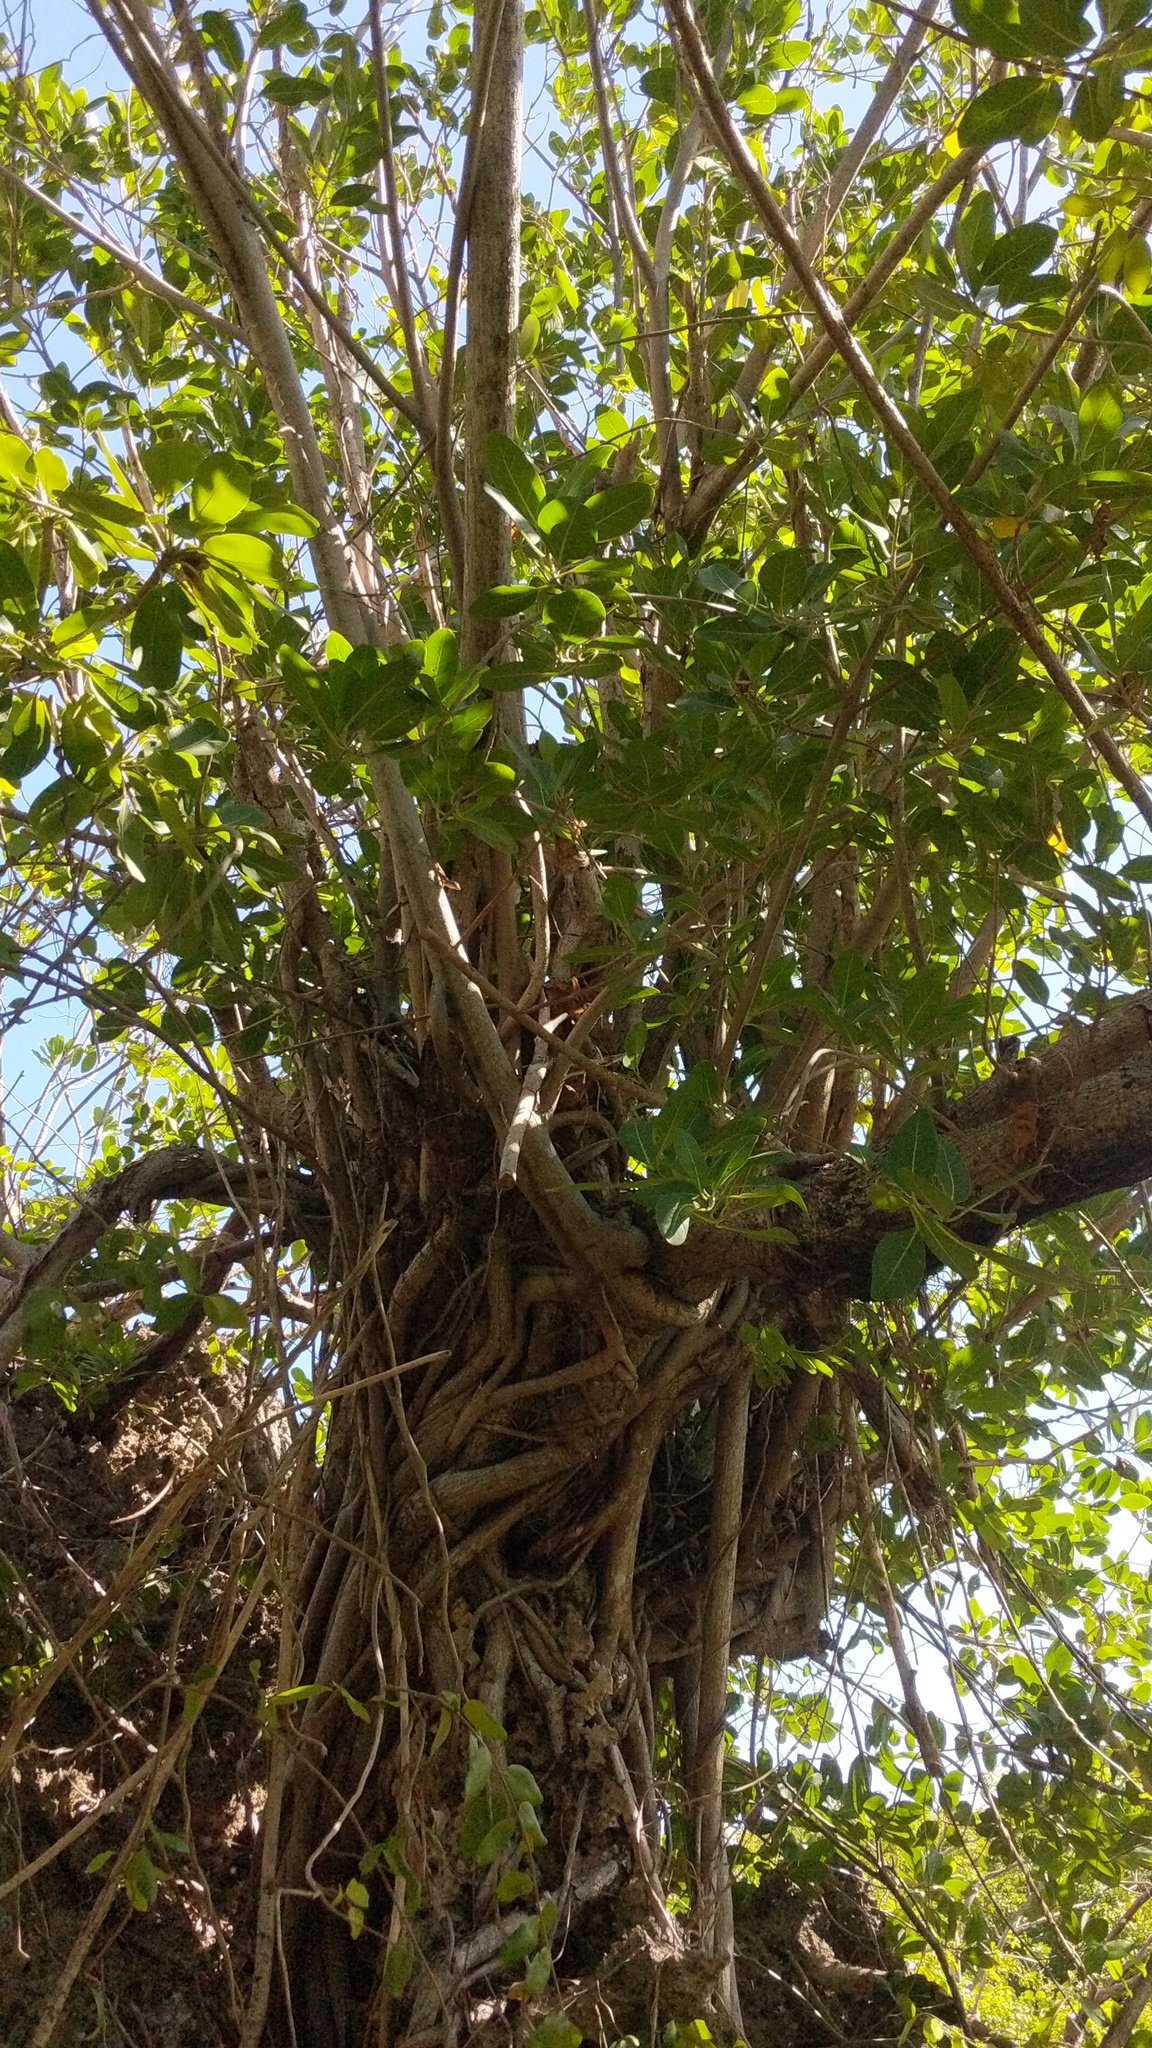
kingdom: Plantae
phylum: Tracheophyta
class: Magnoliopsida
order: Rosales
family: Moraceae
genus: Ficus
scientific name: Ficus aurea
